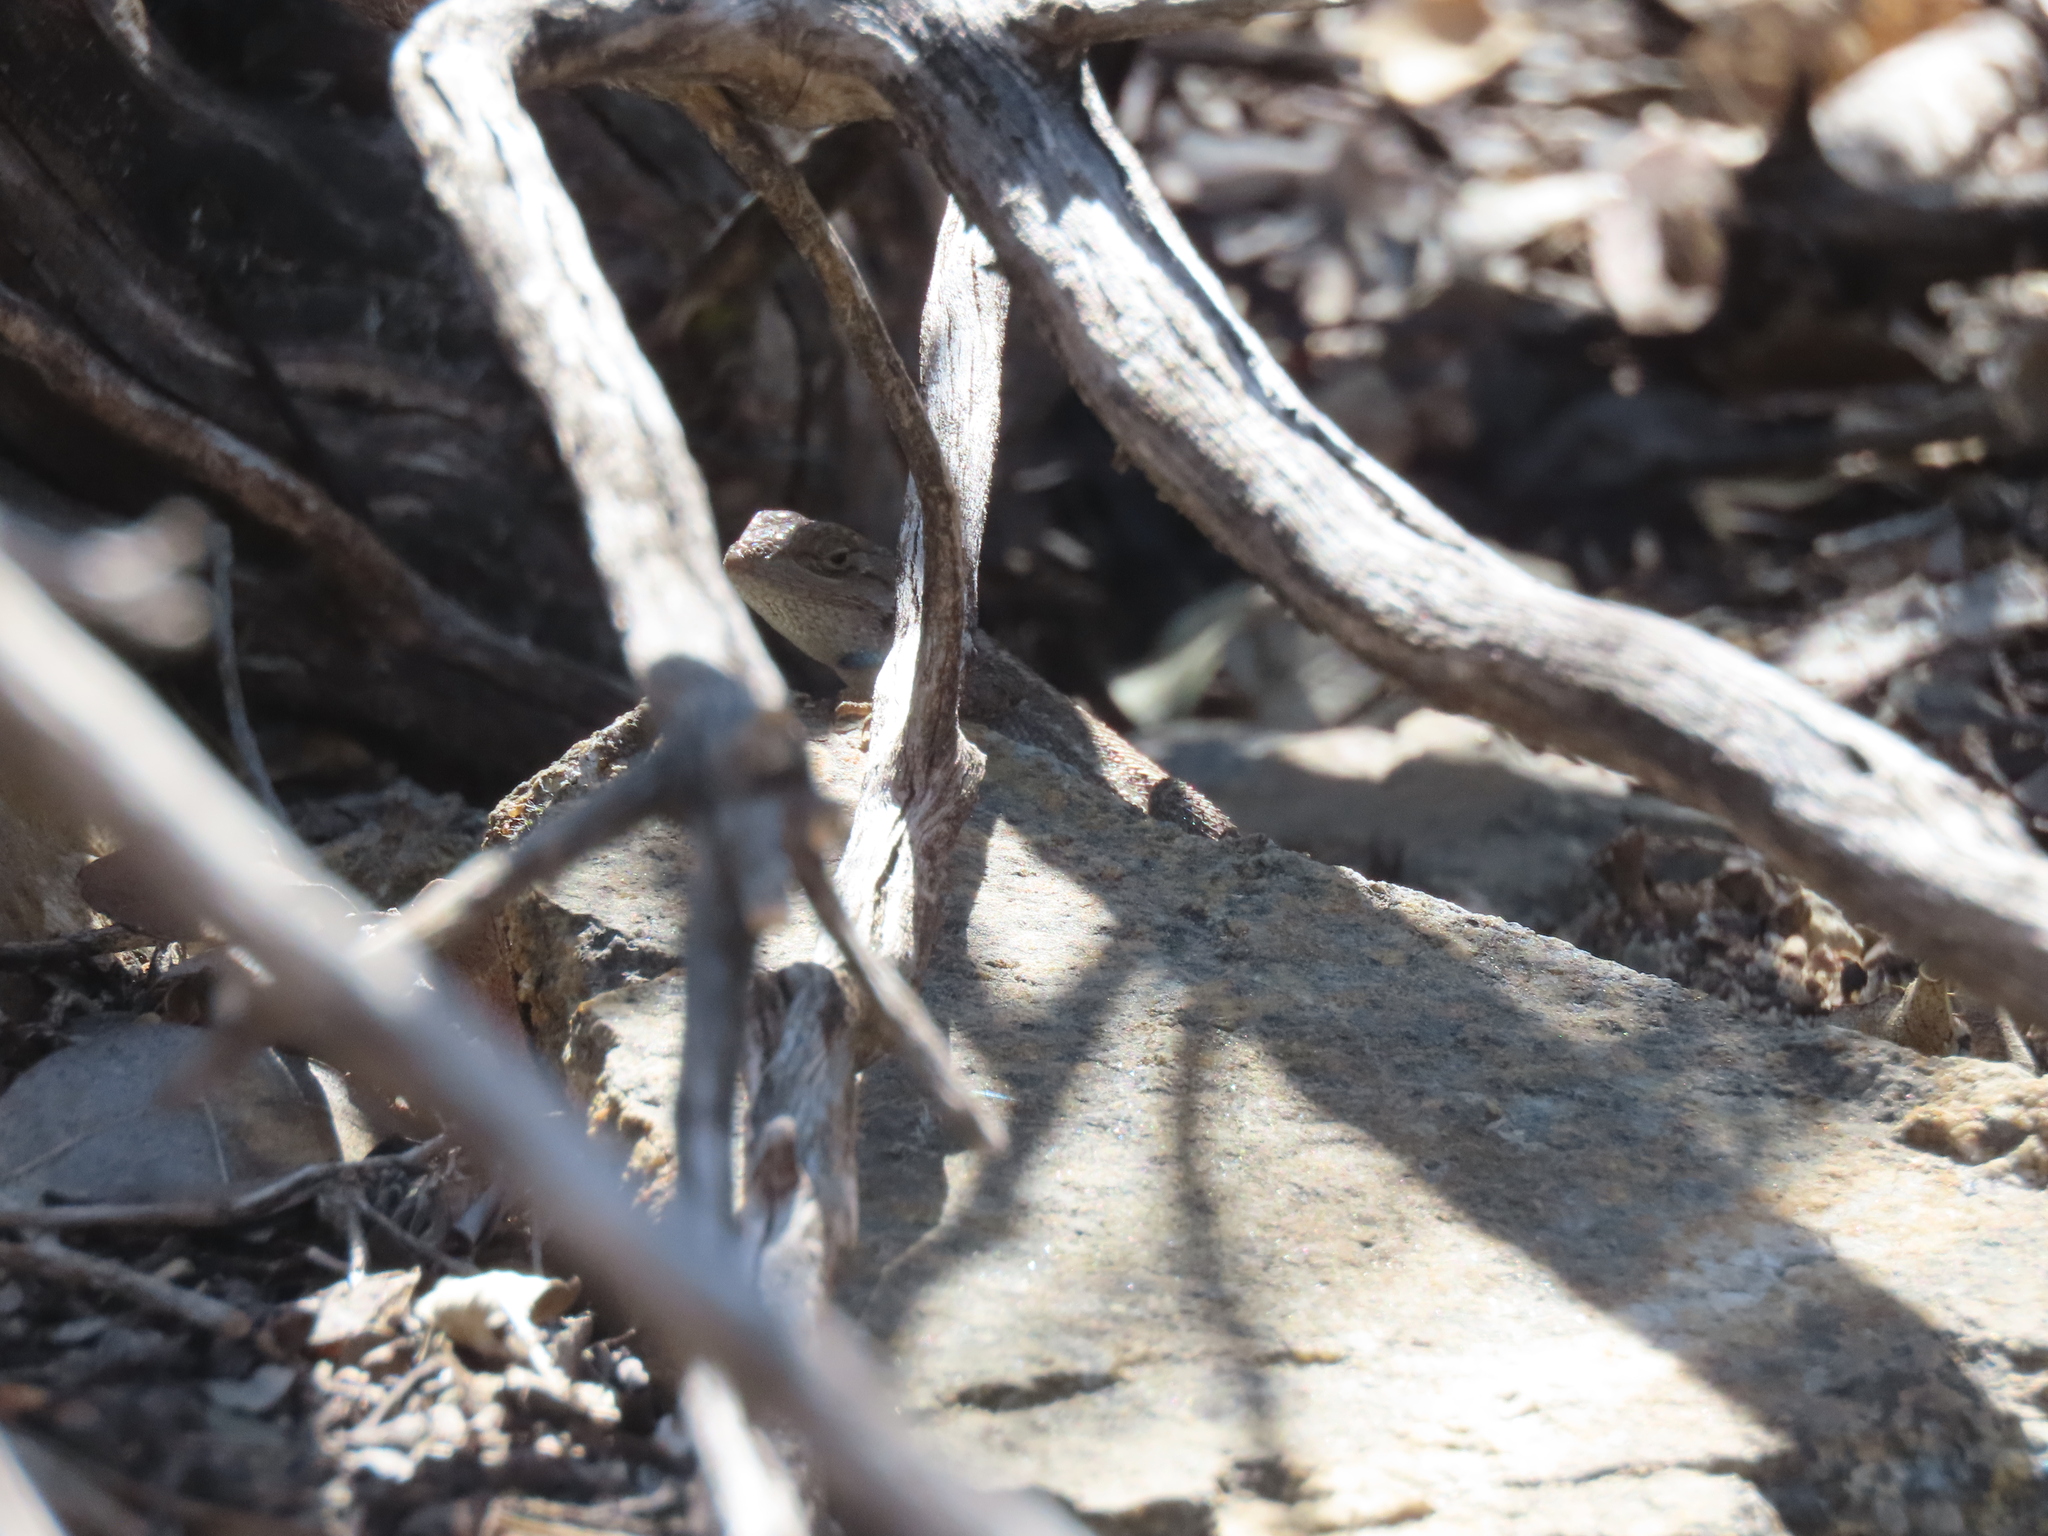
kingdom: Animalia
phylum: Chordata
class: Squamata
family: Phrynosomatidae
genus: Sceloporus
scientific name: Sceloporus tristichus
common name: Plateau fence lizard
